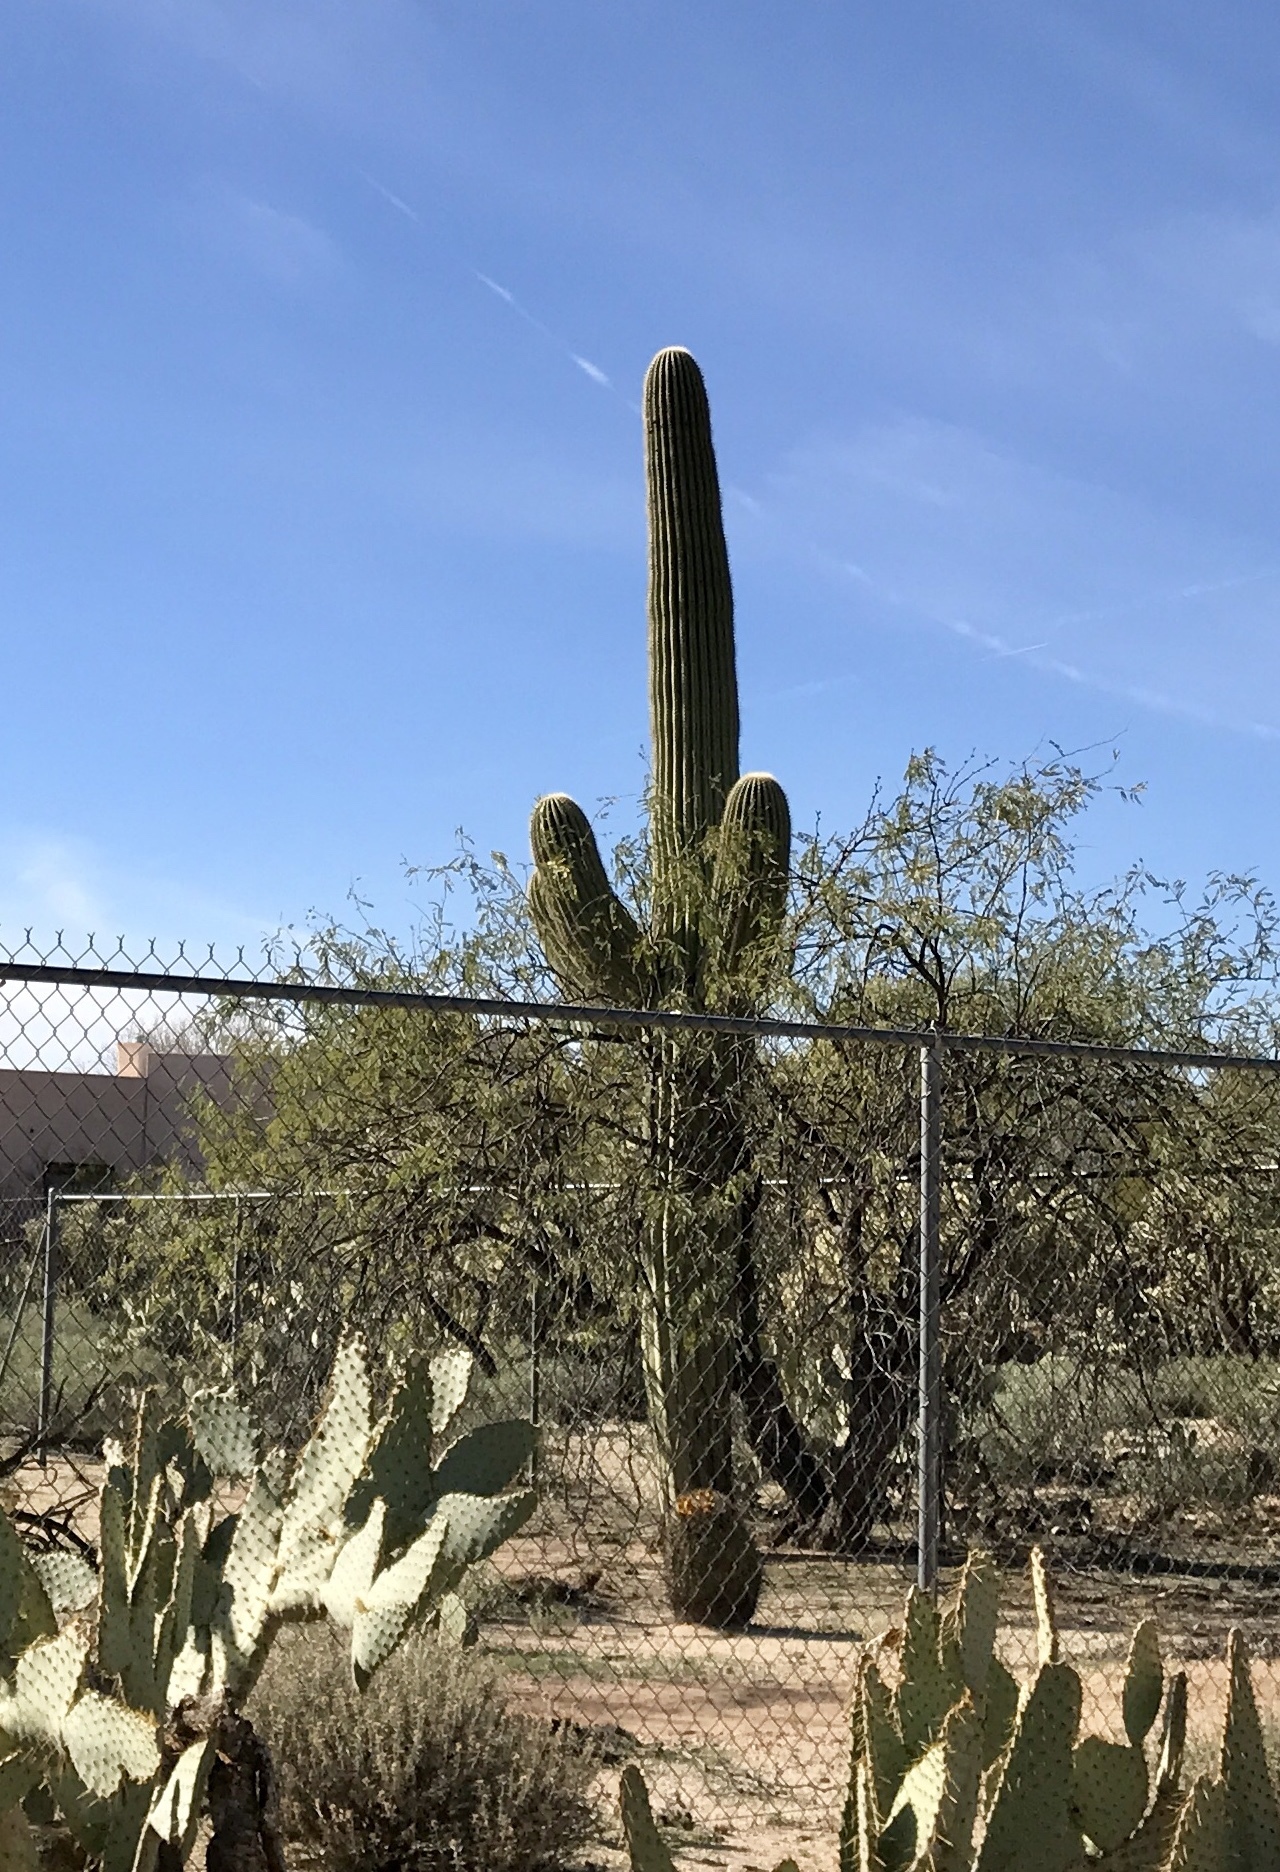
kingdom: Plantae
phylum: Tracheophyta
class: Magnoliopsida
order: Caryophyllales
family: Cactaceae
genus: Carnegiea
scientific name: Carnegiea gigantea
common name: Saguaro
